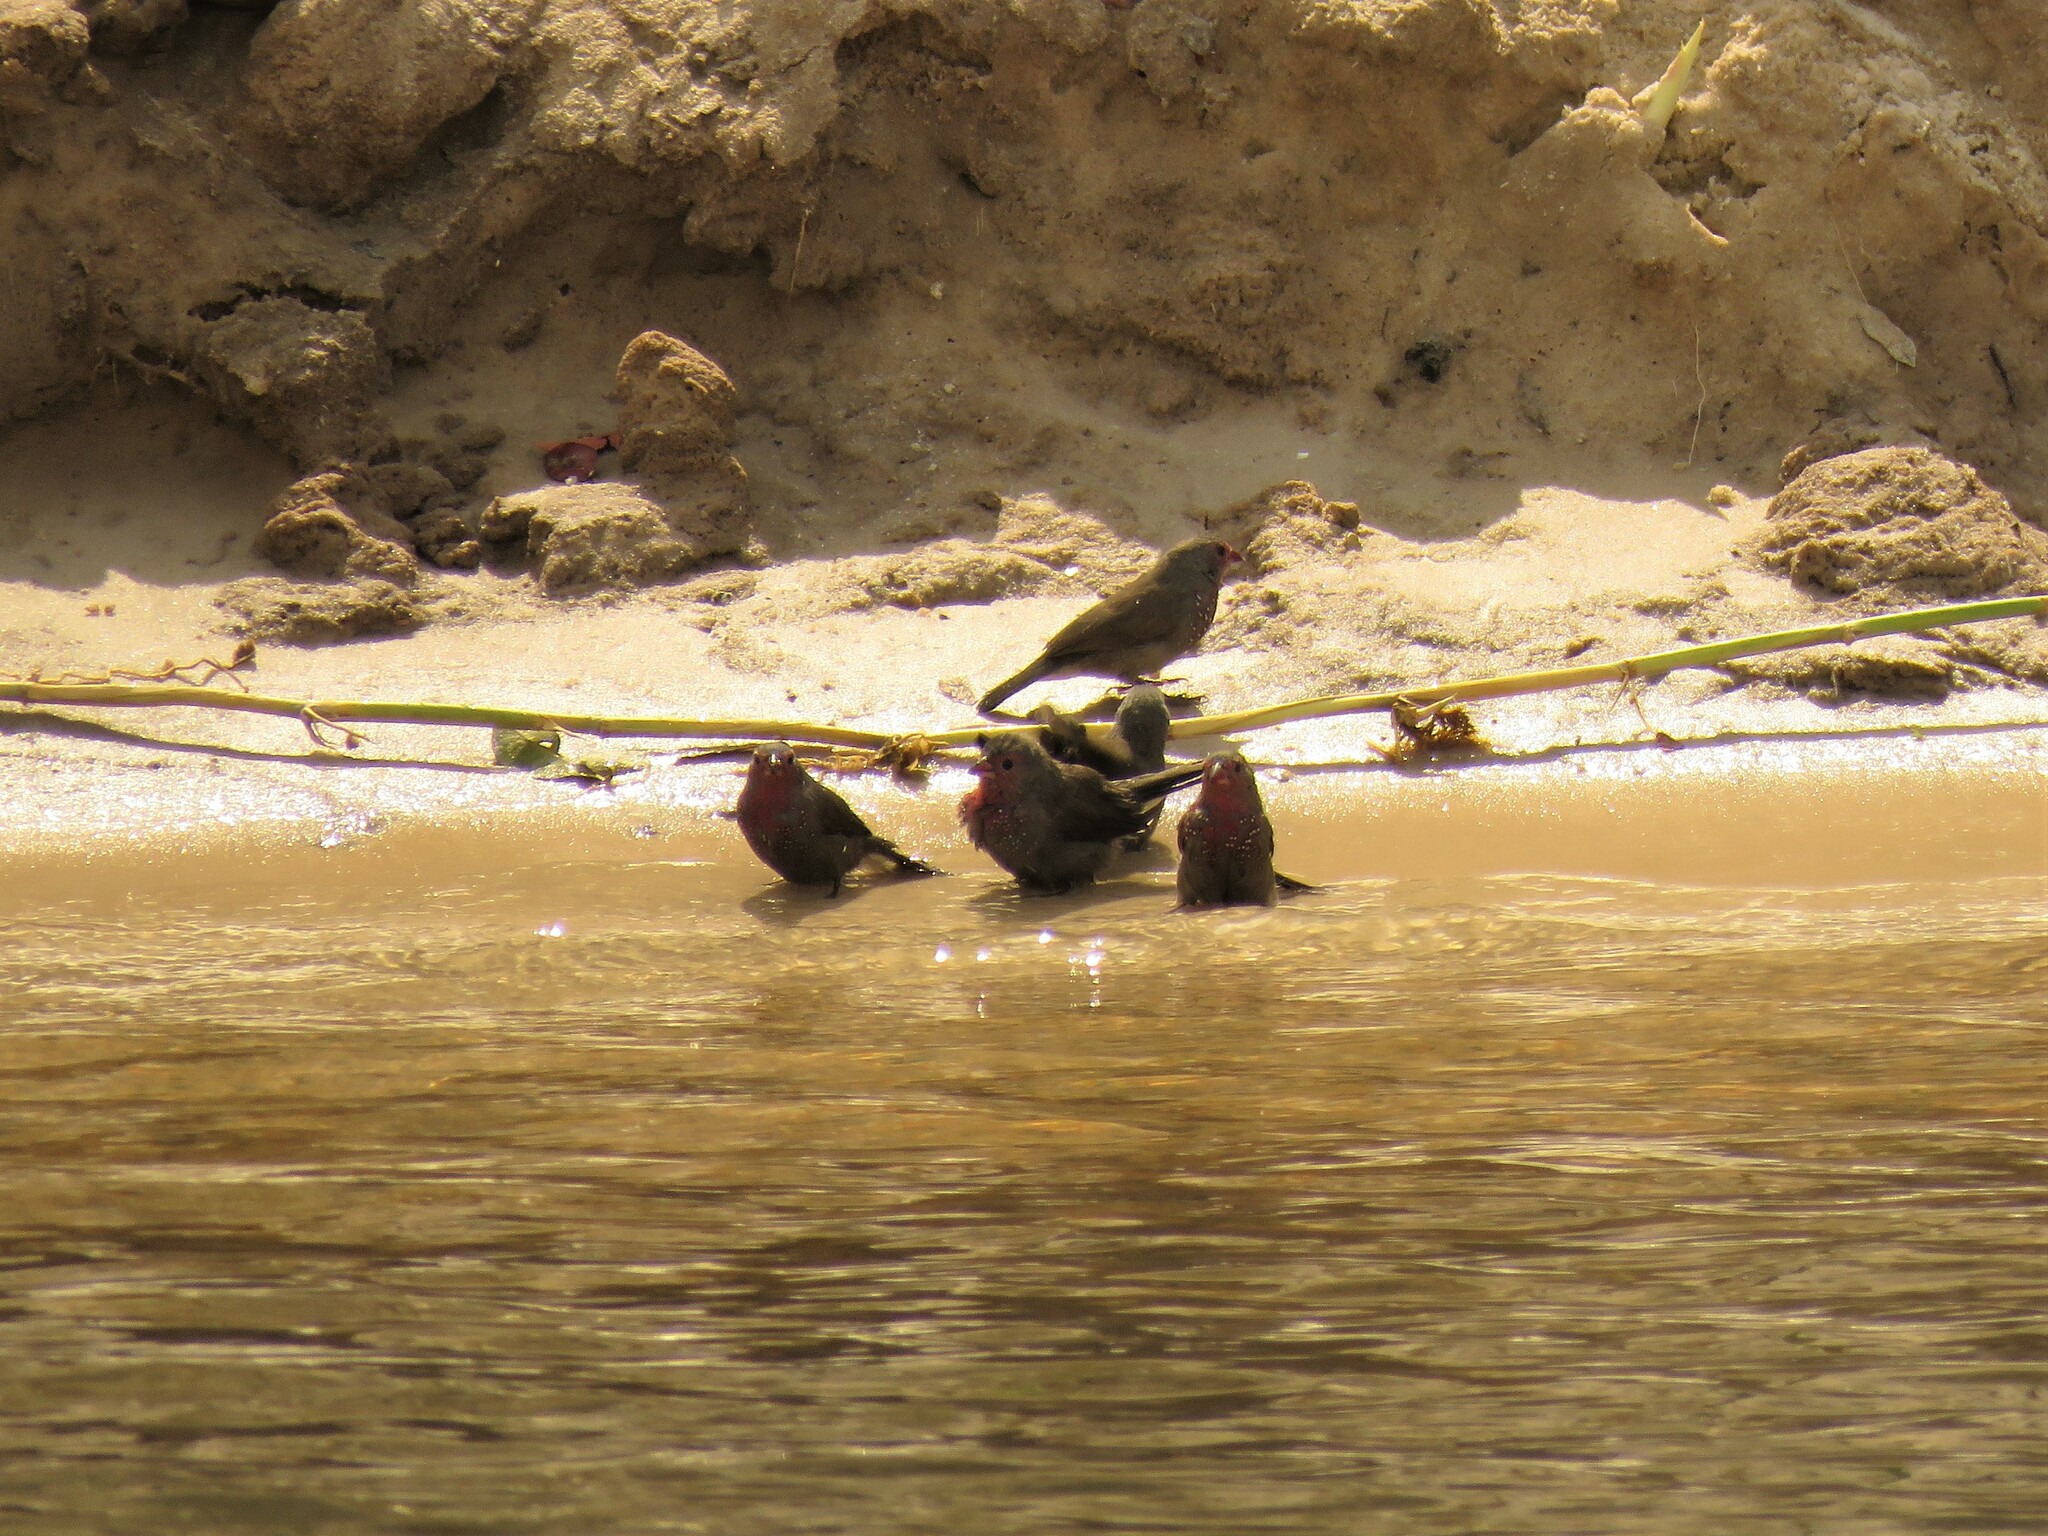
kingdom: Animalia
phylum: Chordata
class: Aves
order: Passeriformes
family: Estrildidae
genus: Lagonosticta
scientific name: Lagonosticta nitidula
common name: Brown firefinch
